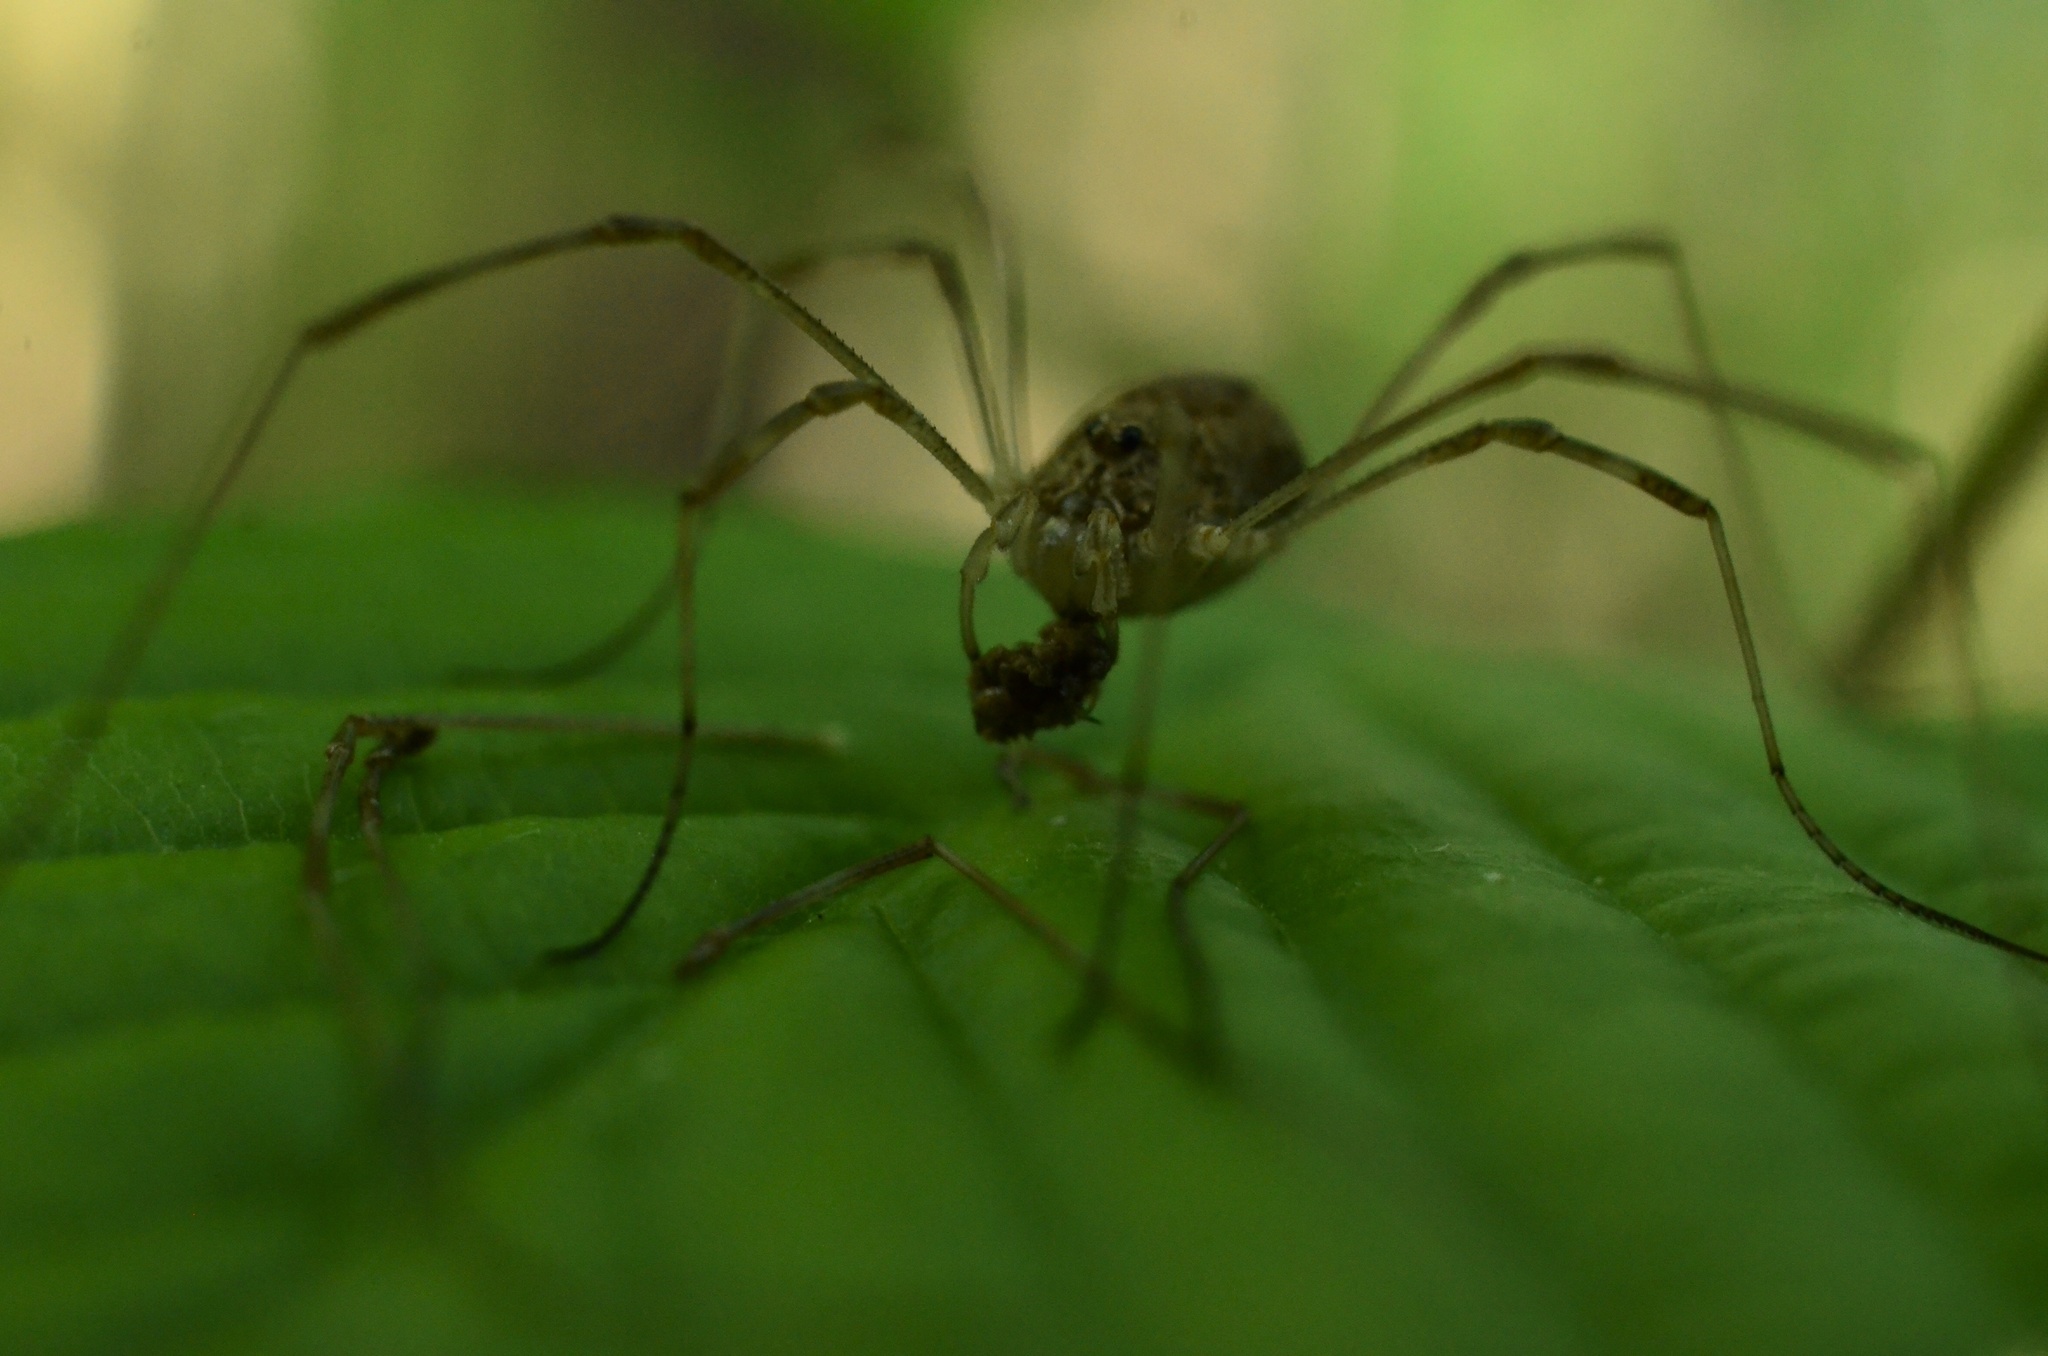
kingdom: Animalia
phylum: Arthropoda
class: Arachnida
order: Opiliones
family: Phalangiidae
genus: Rilaena
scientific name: Rilaena triangularis
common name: Spring harvestman
